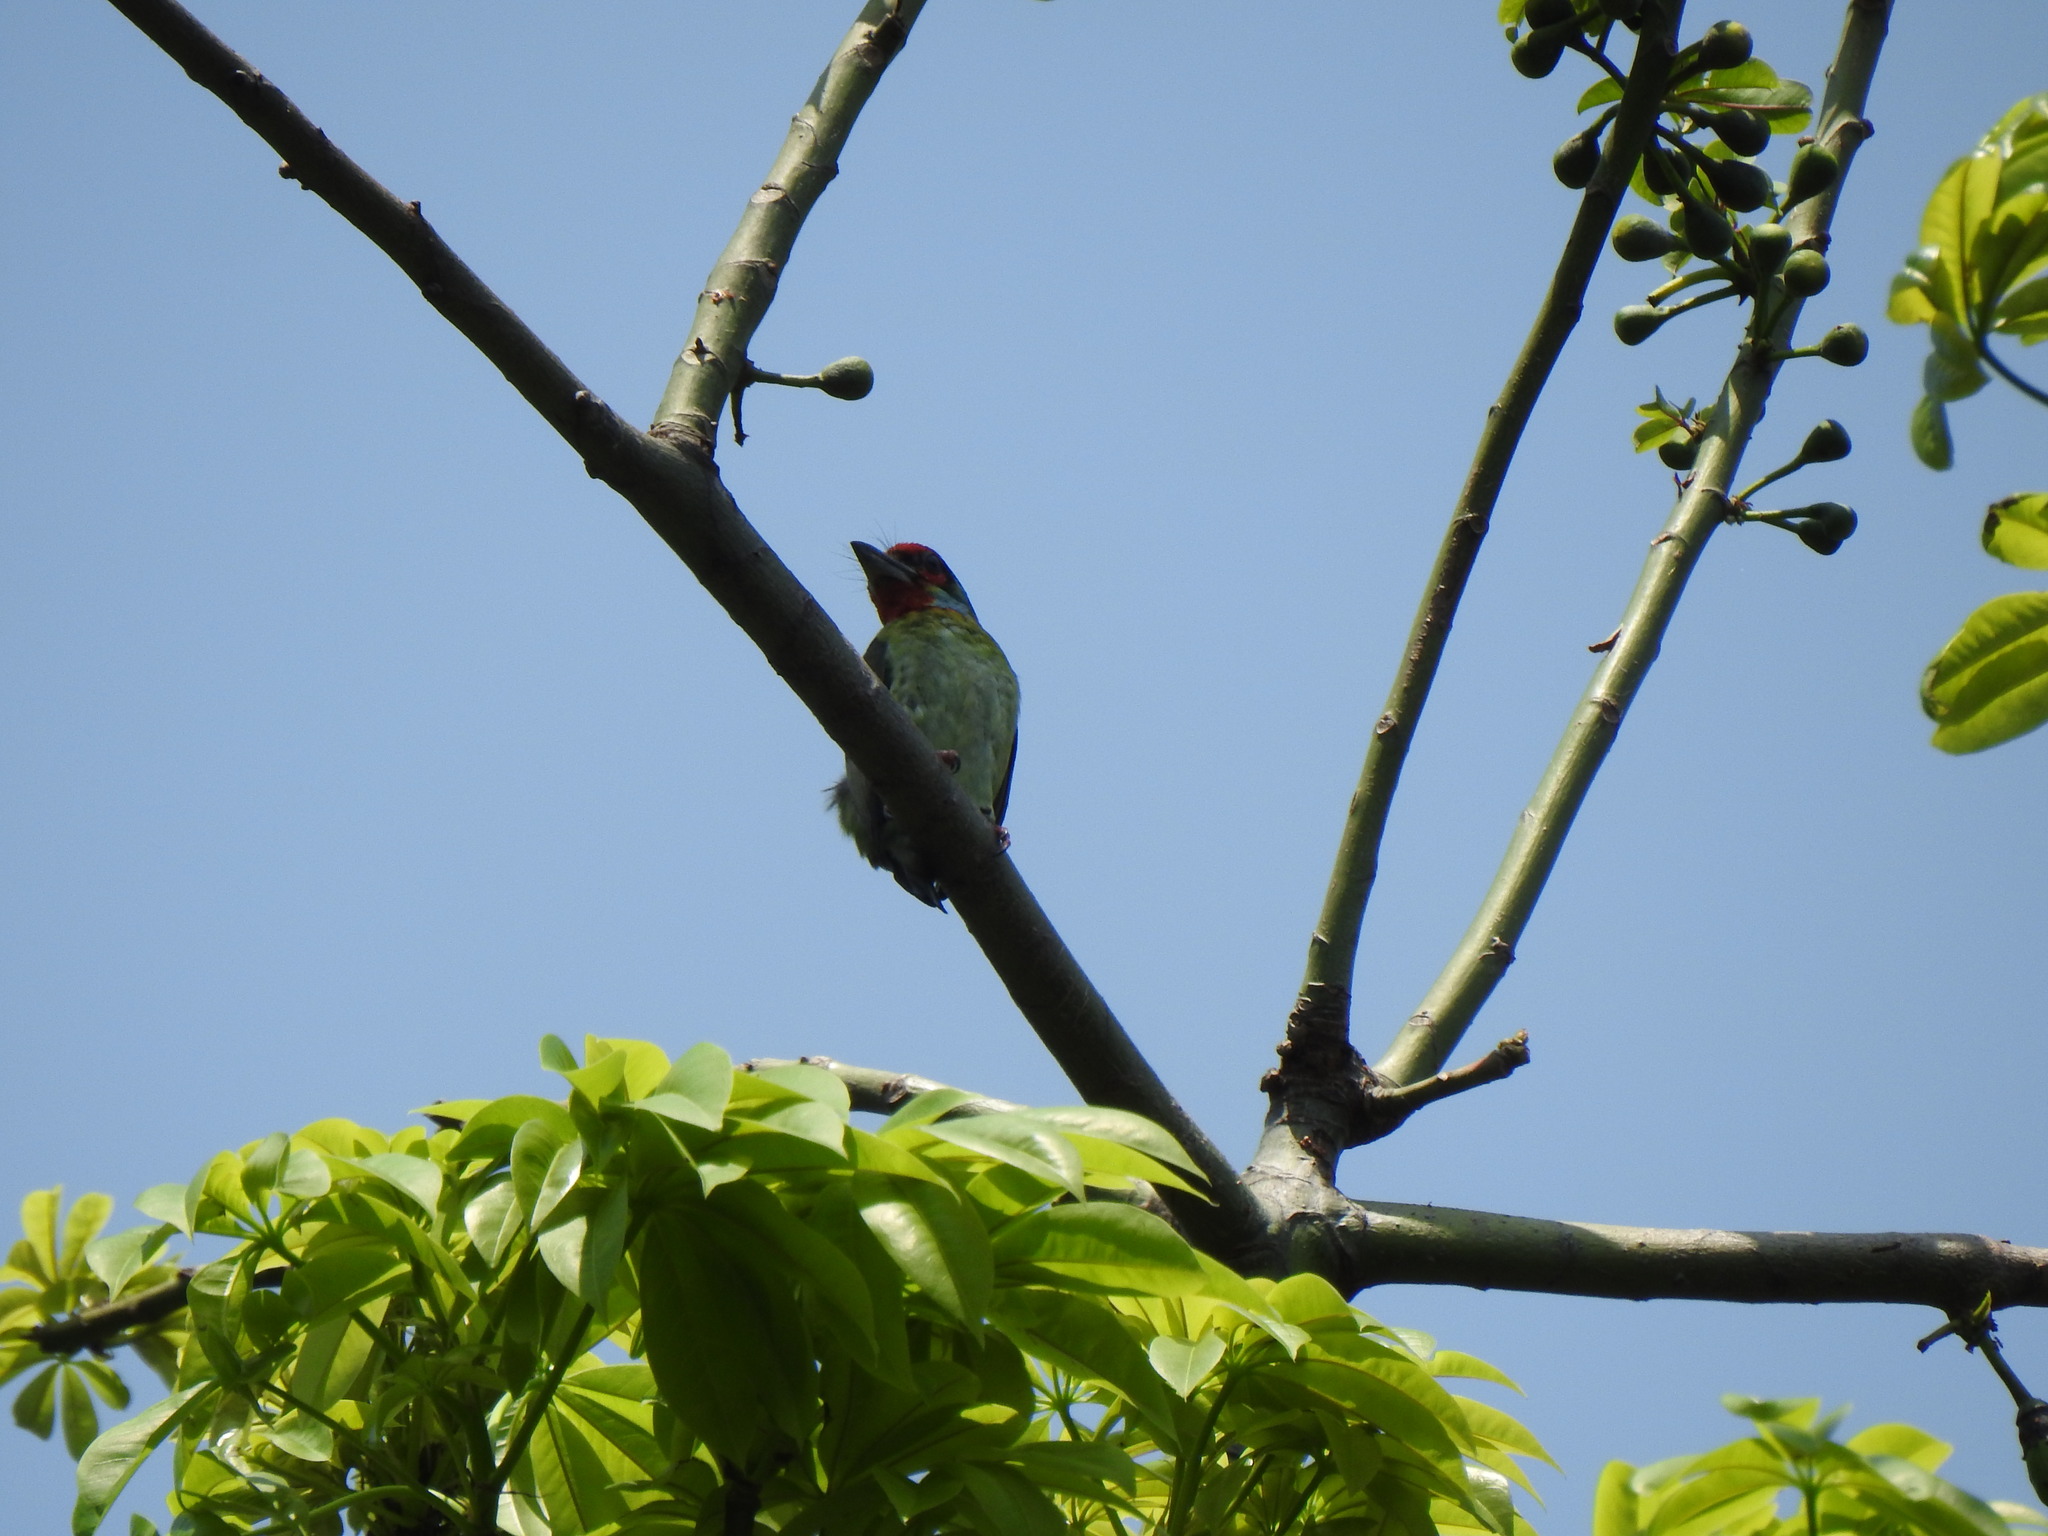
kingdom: Animalia
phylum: Chordata
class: Aves
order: Piciformes
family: Megalaimidae
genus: Psilopogon
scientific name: Psilopogon malabaricus
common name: Malabar barbet
